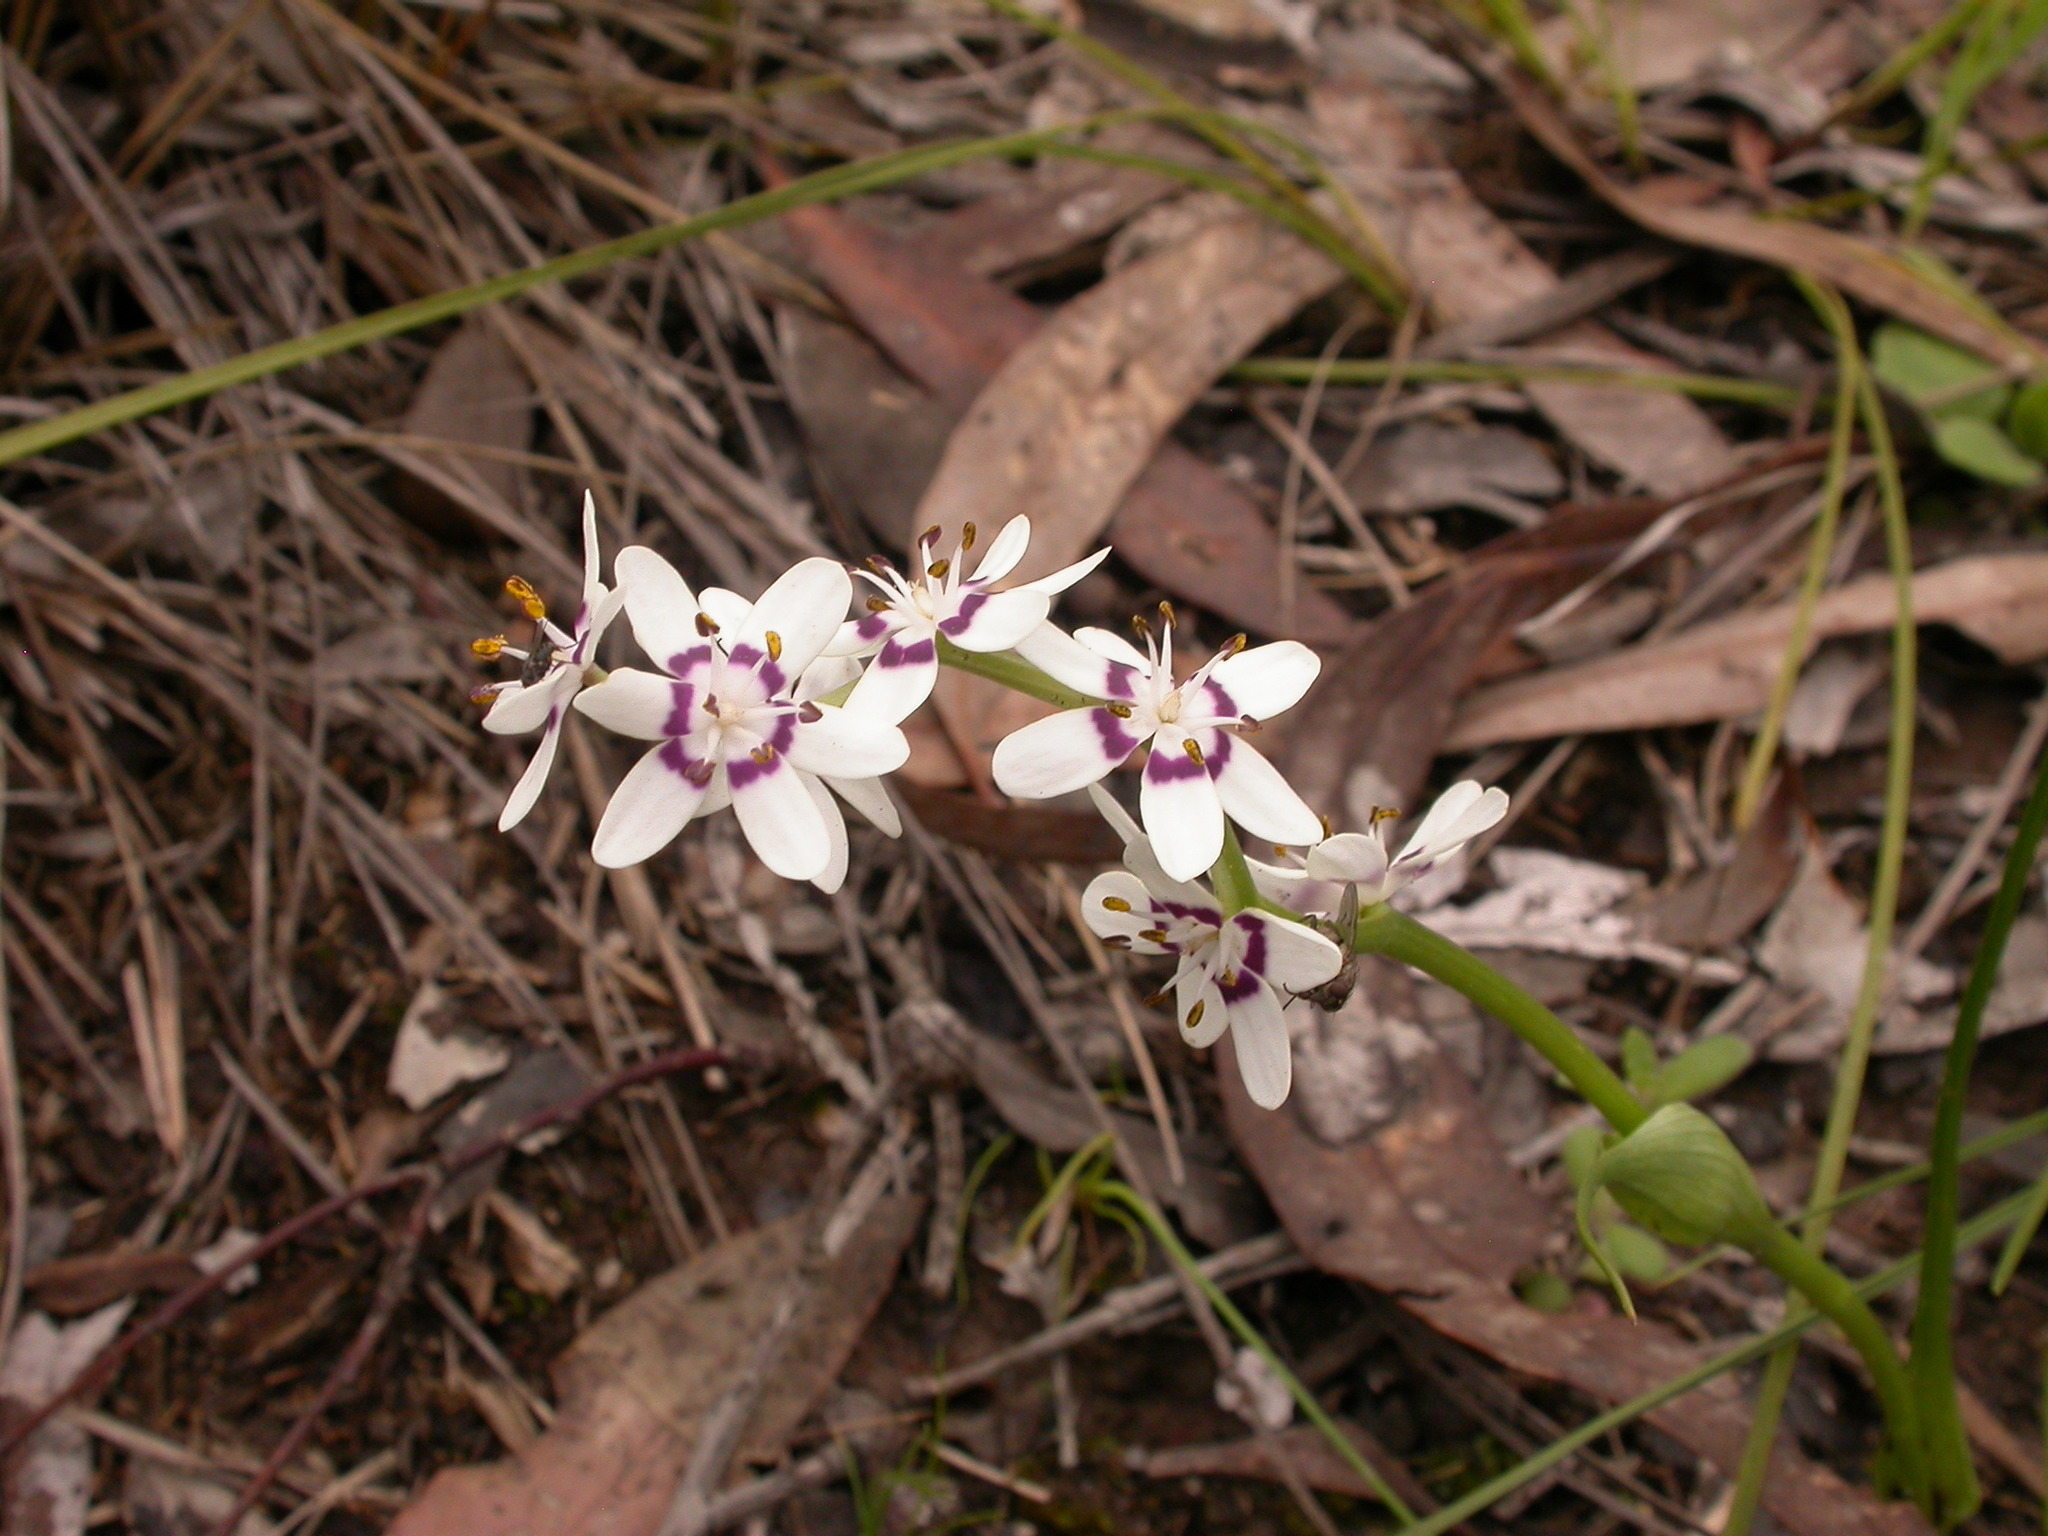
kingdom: Plantae
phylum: Tracheophyta
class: Liliopsida
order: Liliales
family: Colchicaceae
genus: Wurmbea
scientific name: Wurmbea dioica
